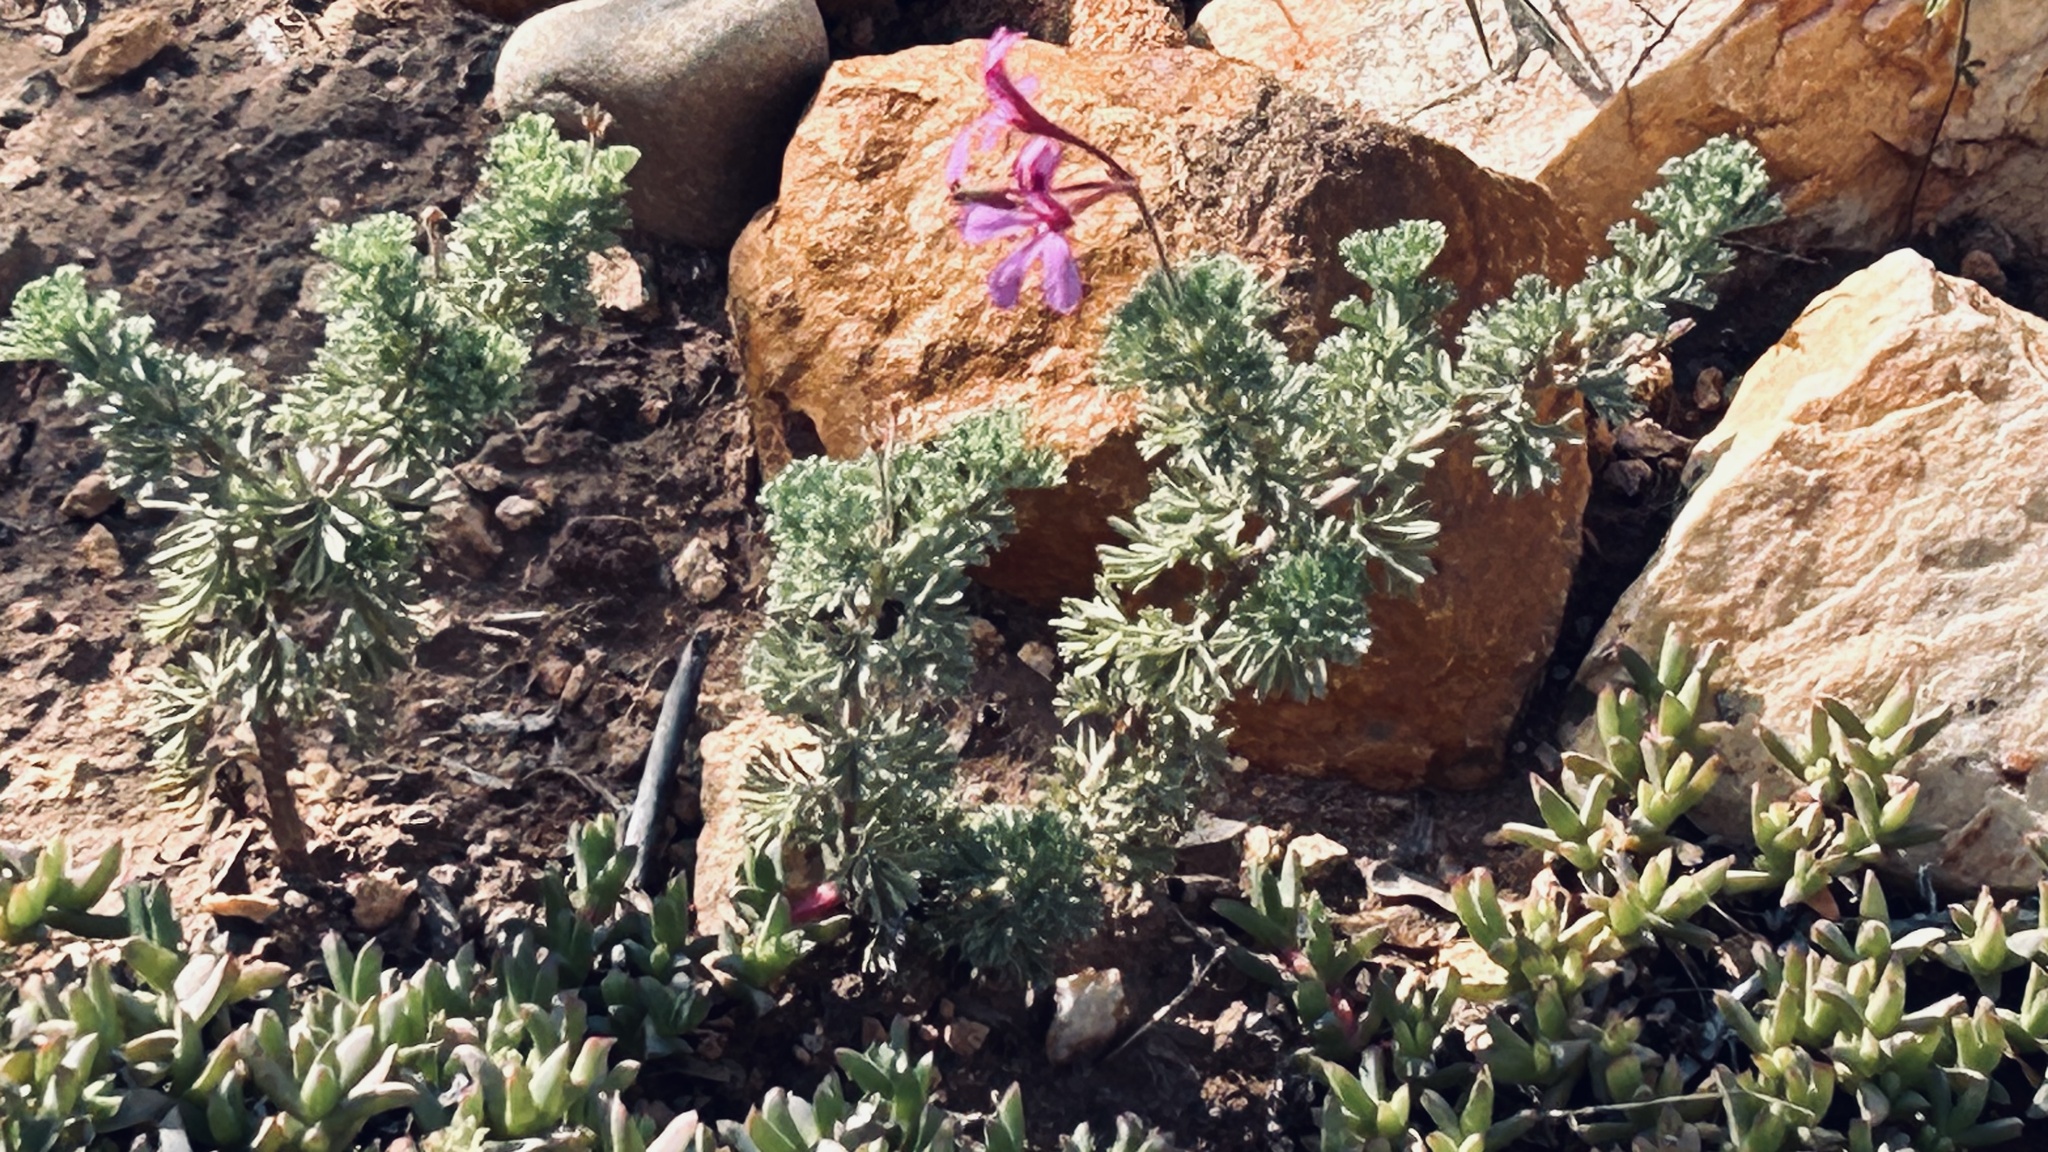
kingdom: Plantae
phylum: Tracheophyta
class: Magnoliopsida
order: Geraniales
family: Geraniaceae
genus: Pelargonium
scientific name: Pelargonium abrotanifolium
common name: Southernwood geranium
